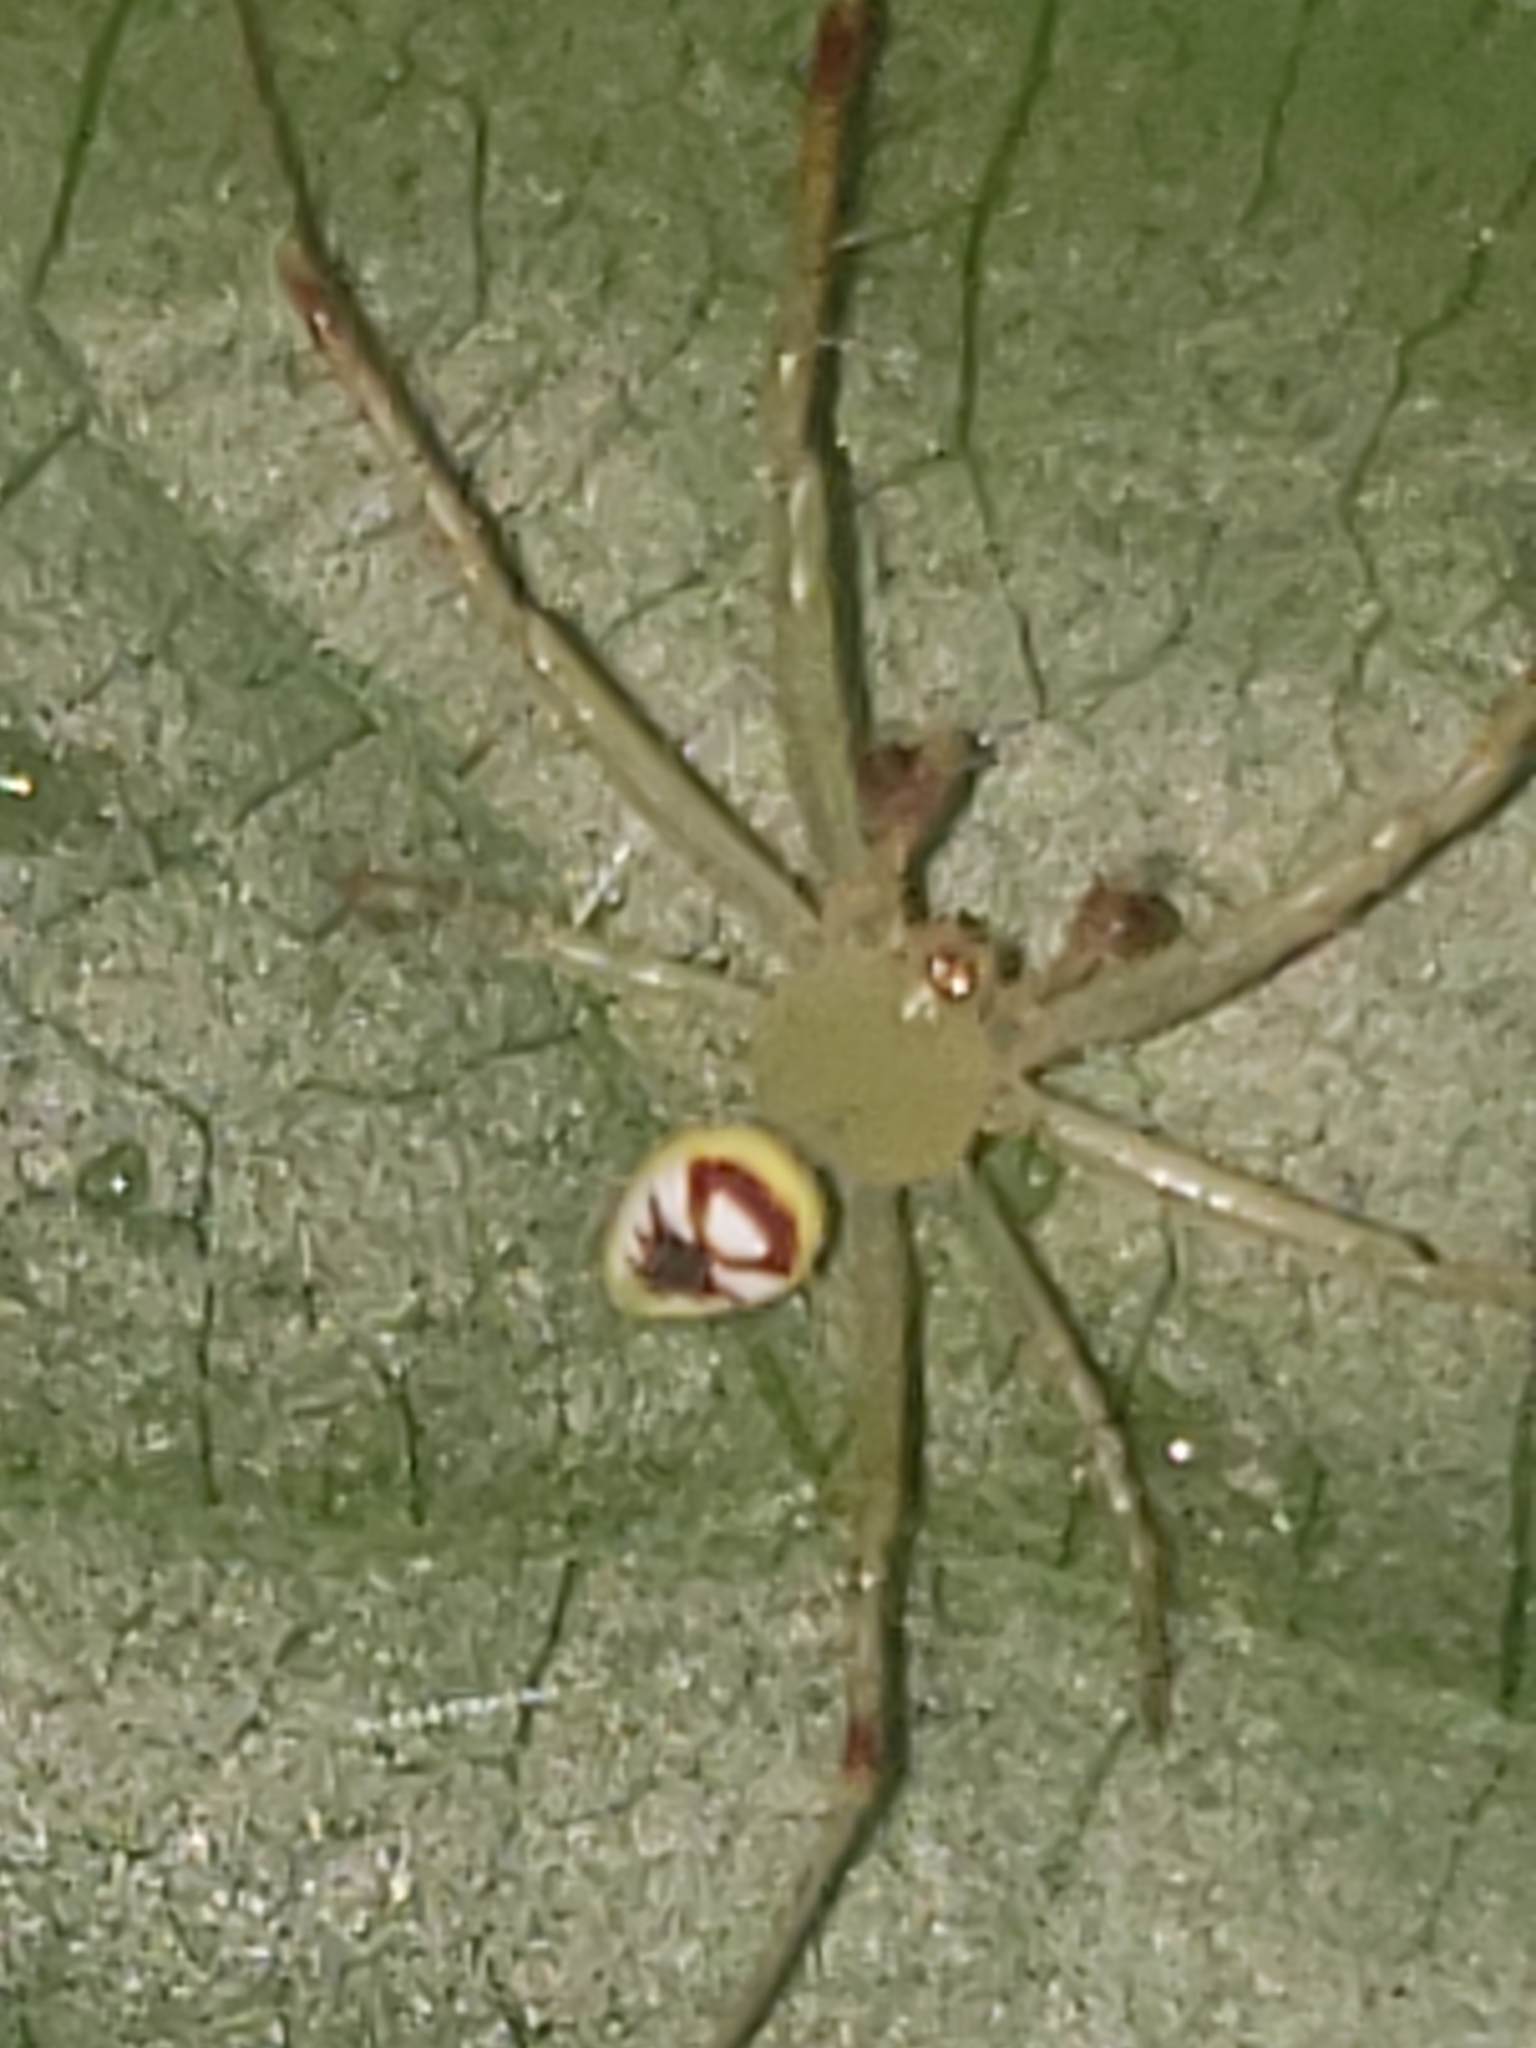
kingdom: Animalia
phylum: Arthropoda
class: Arachnida
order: Araneae
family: Araneidae
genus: Araneus
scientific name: Araneus niveus
